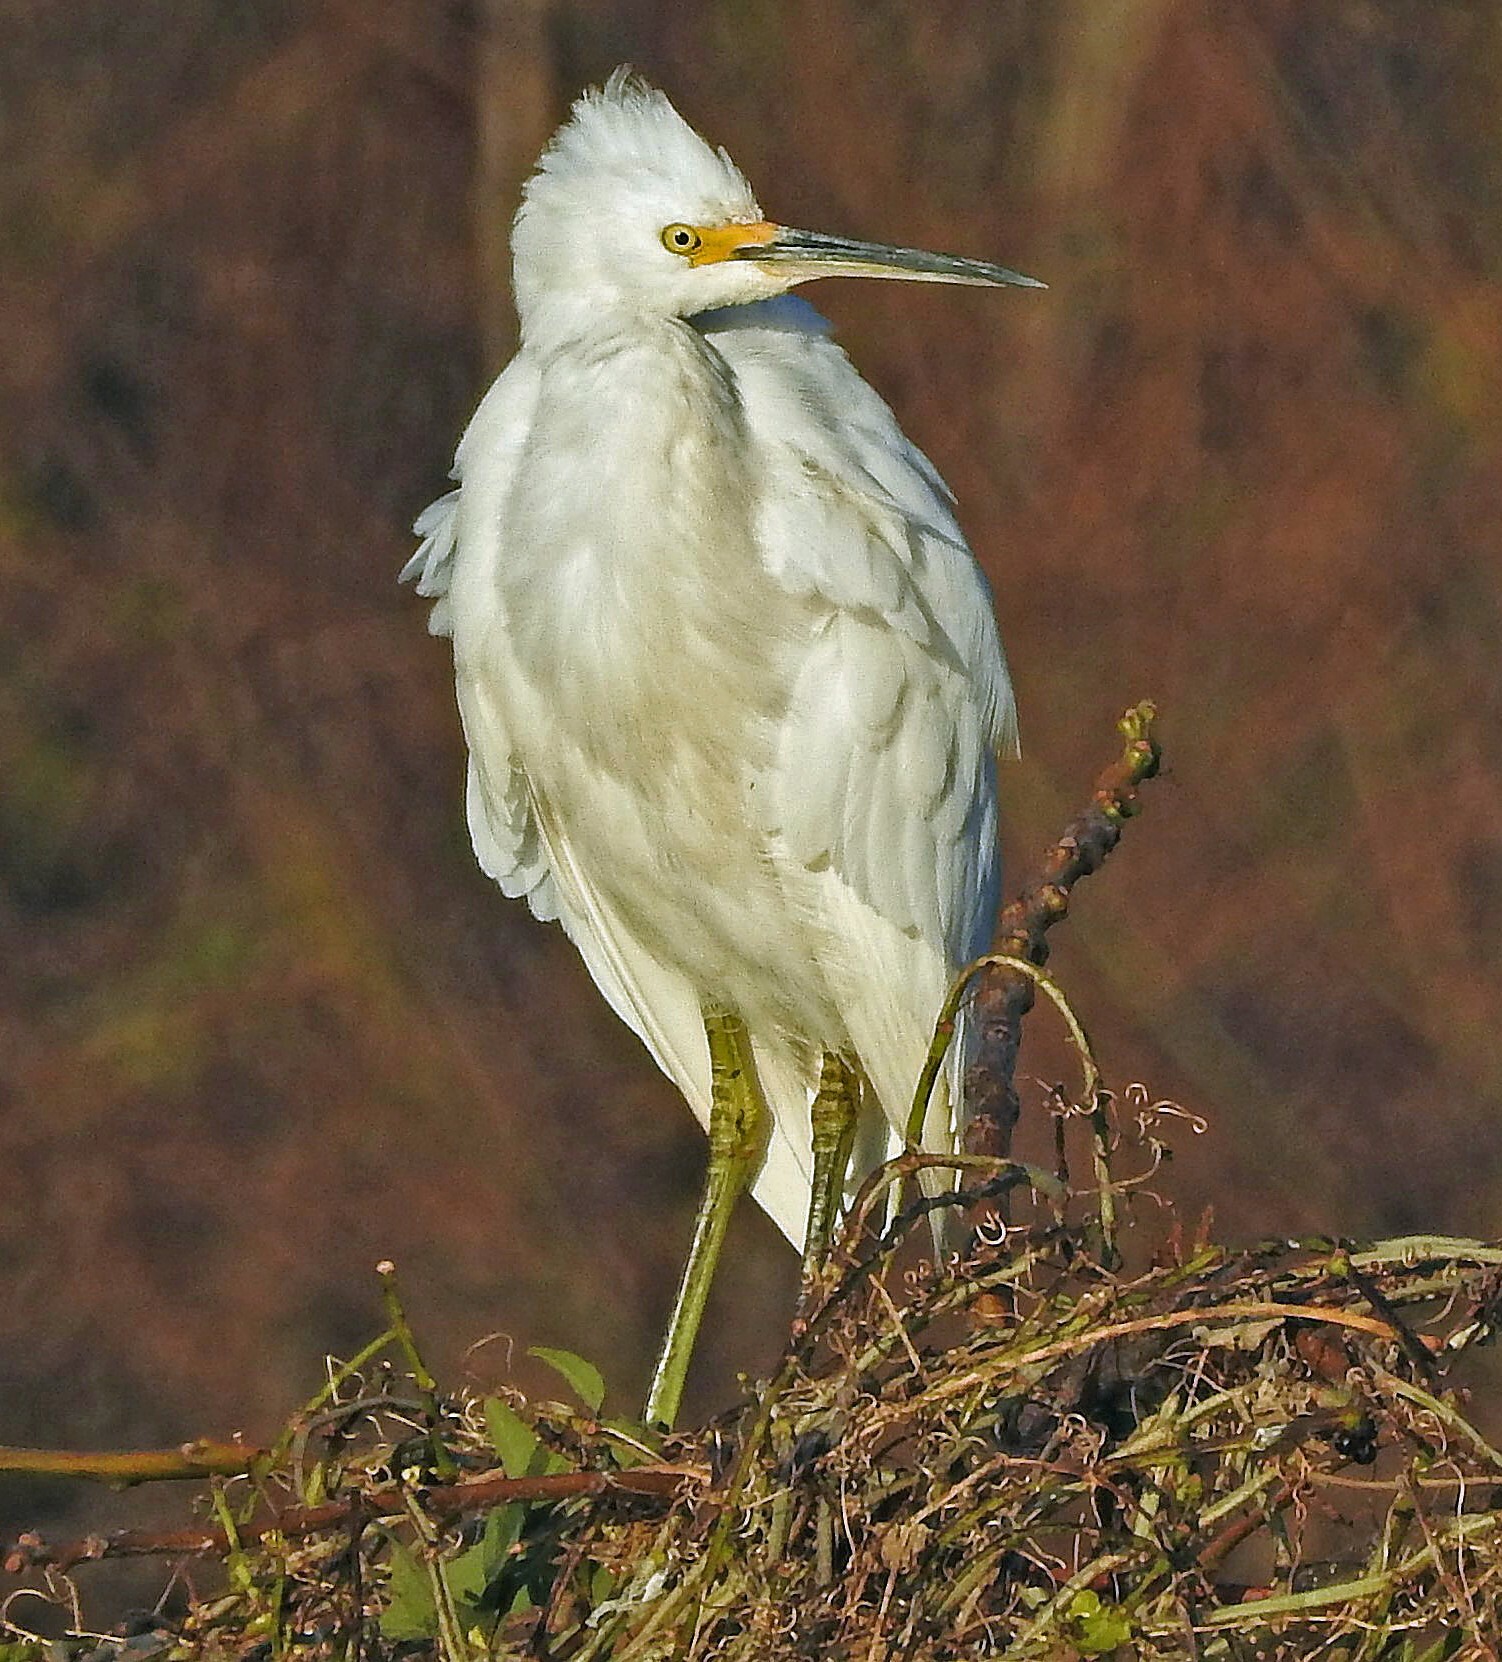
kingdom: Animalia
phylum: Chordata
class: Aves
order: Pelecaniformes
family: Ardeidae
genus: Egretta
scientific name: Egretta thula
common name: Snowy egret
